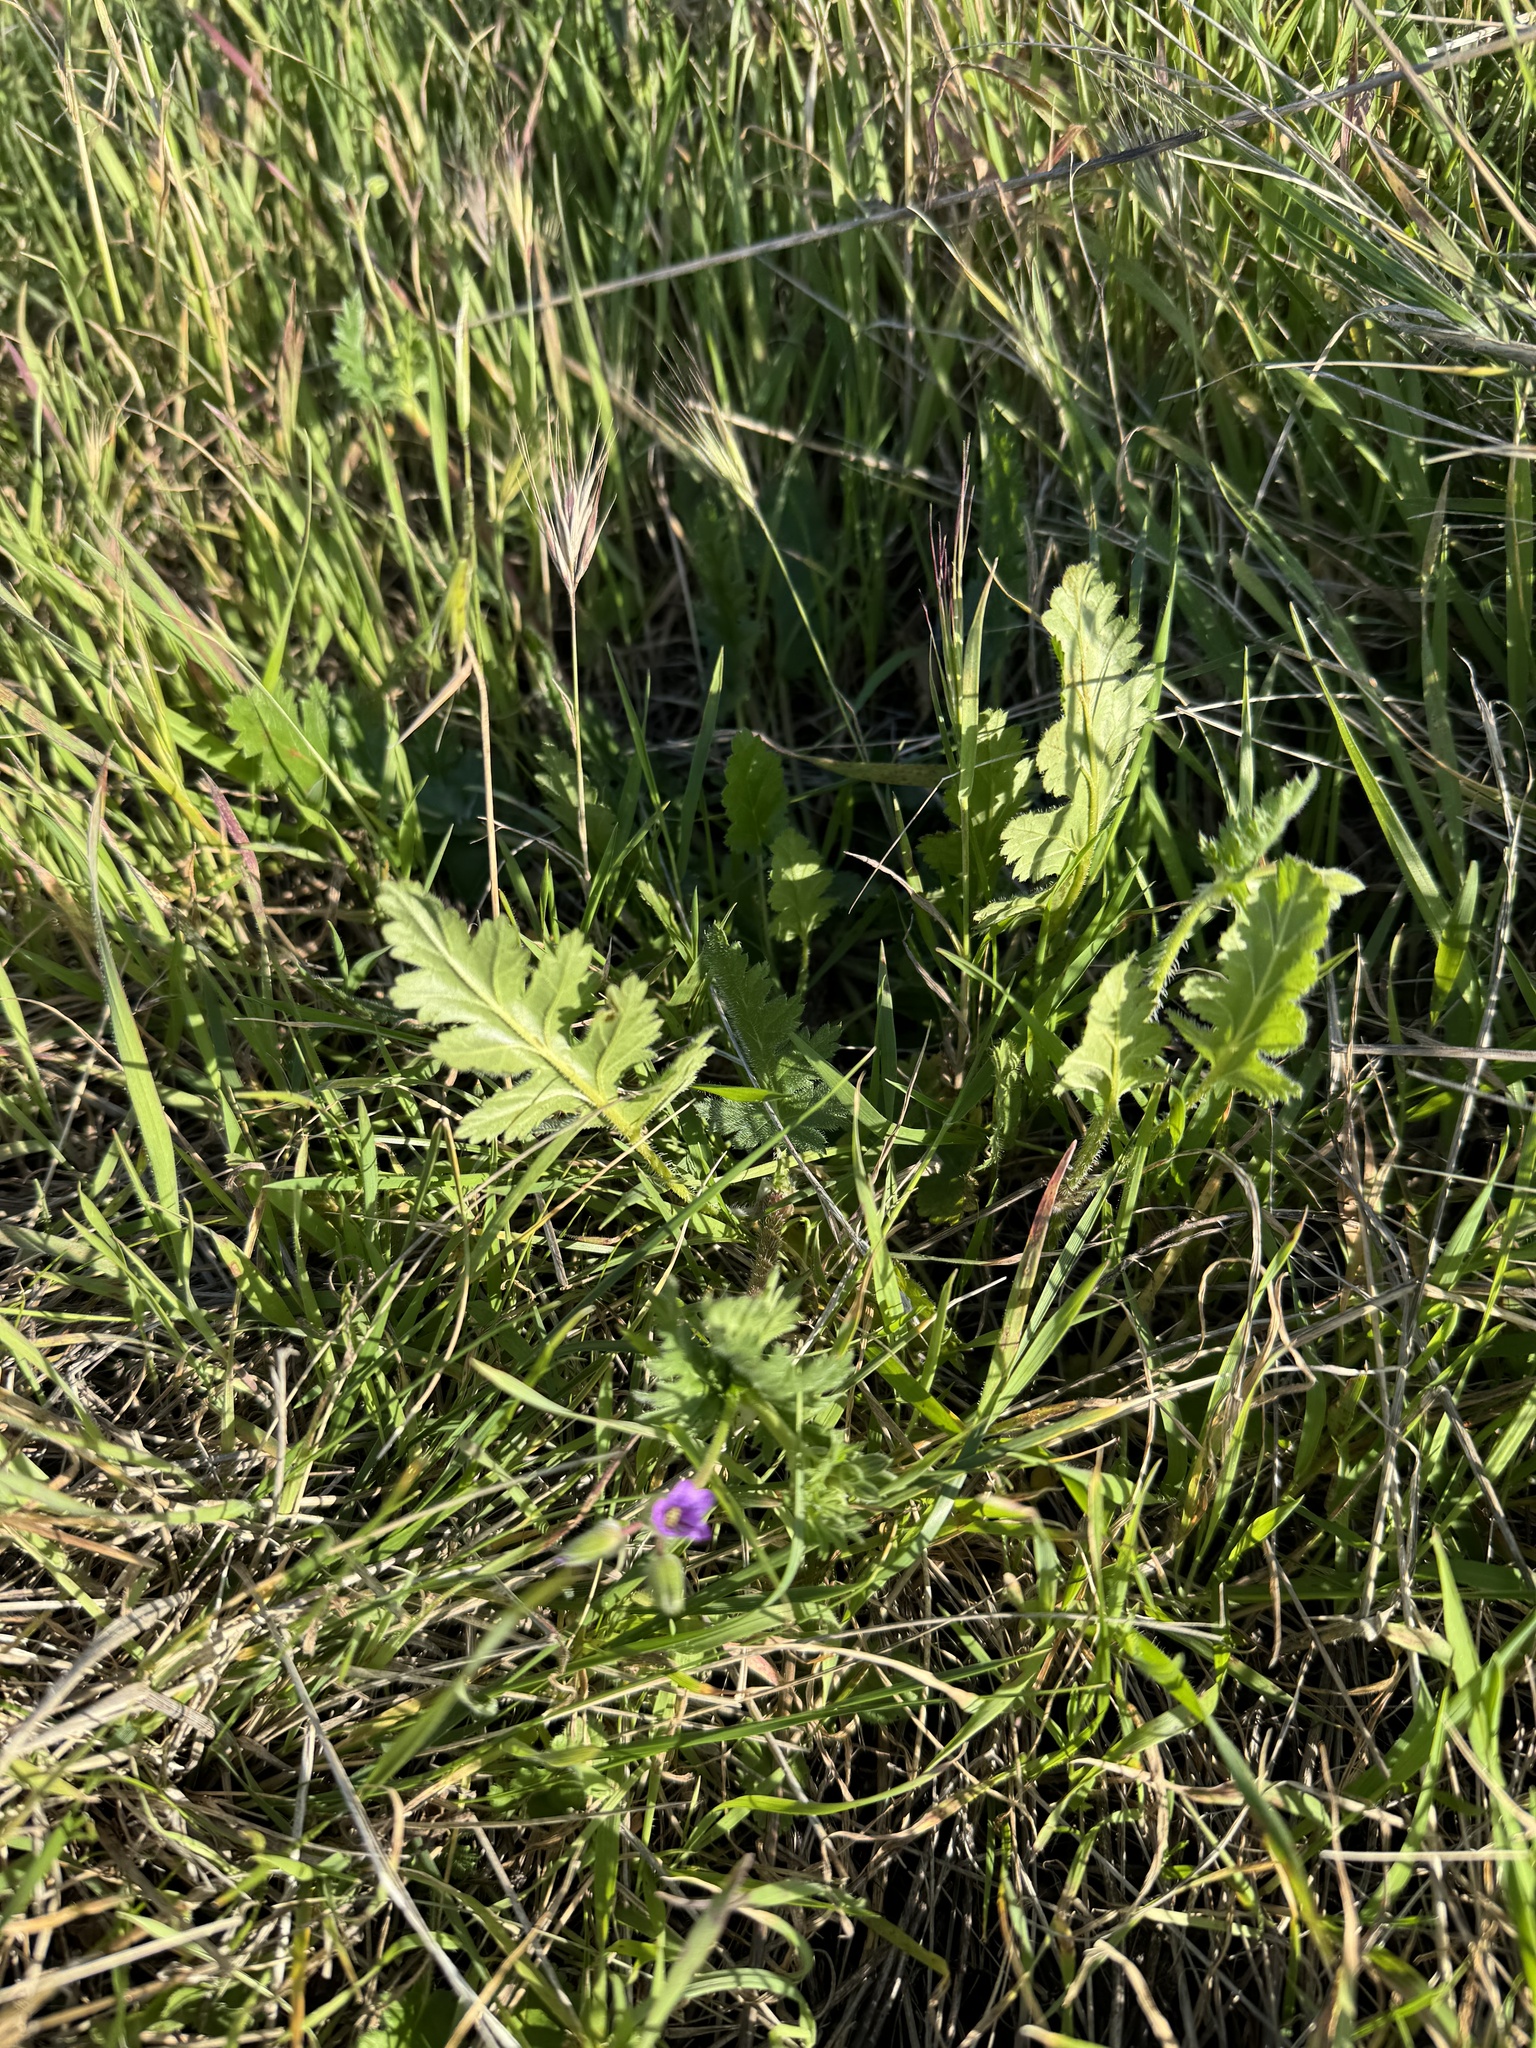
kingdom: Plantae
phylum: Tracheophyta
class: Magnoliopsida
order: Geraniales
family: Geraniaceae
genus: Erodium
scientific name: Erodium brachycarpum
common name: Hairy-pitted stork's-bill
